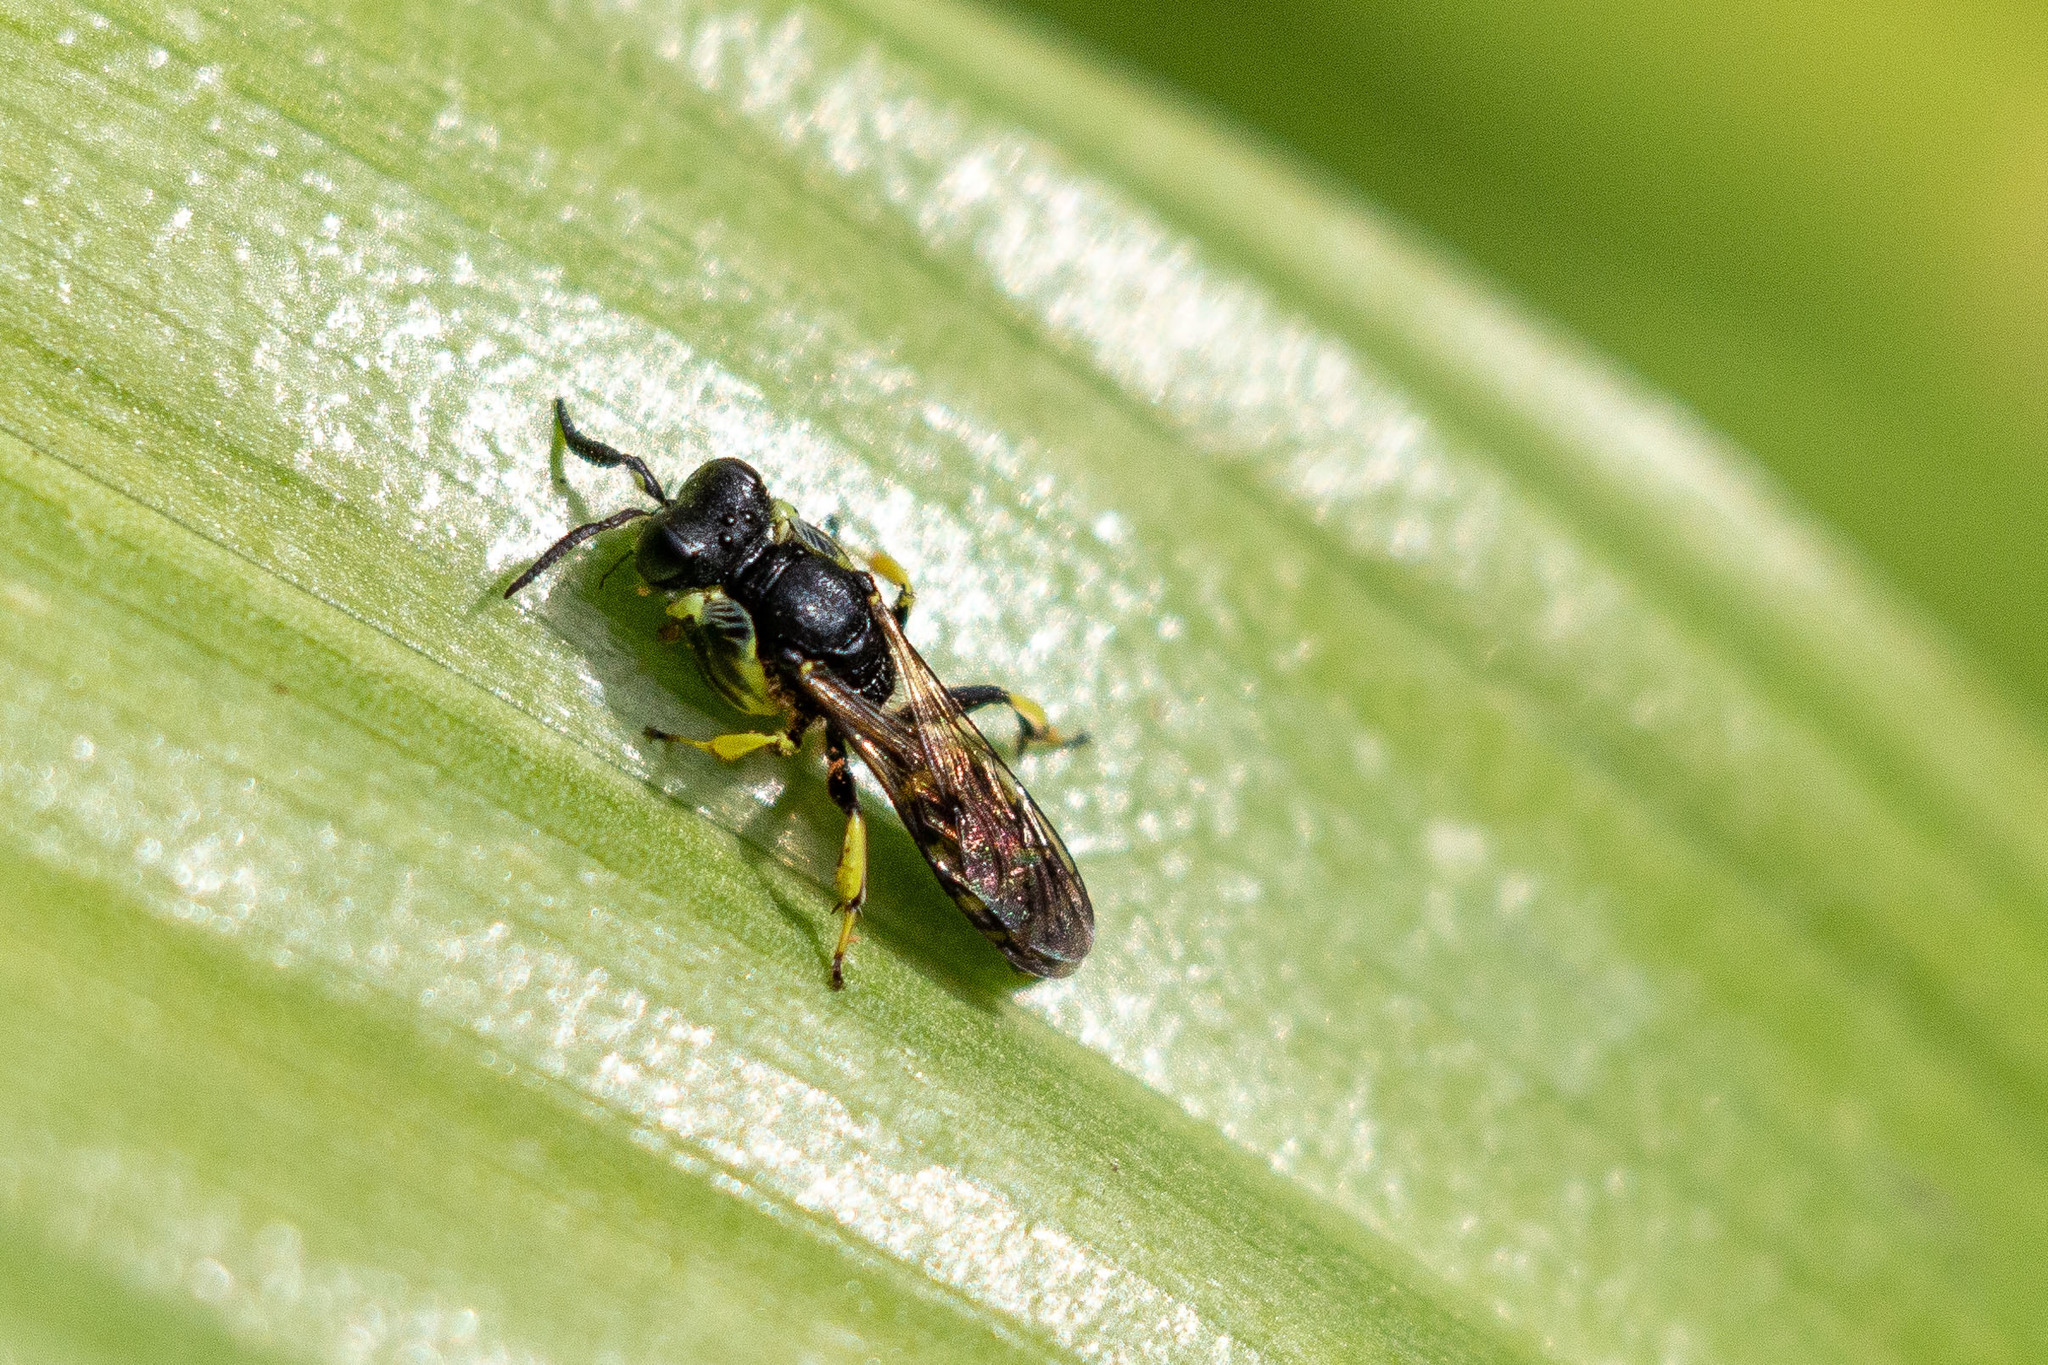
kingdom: Animalia
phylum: Arthropoda
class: Insecta
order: Hymenoptera
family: Crabronidae
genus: Crabro
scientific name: Crabro latipes
